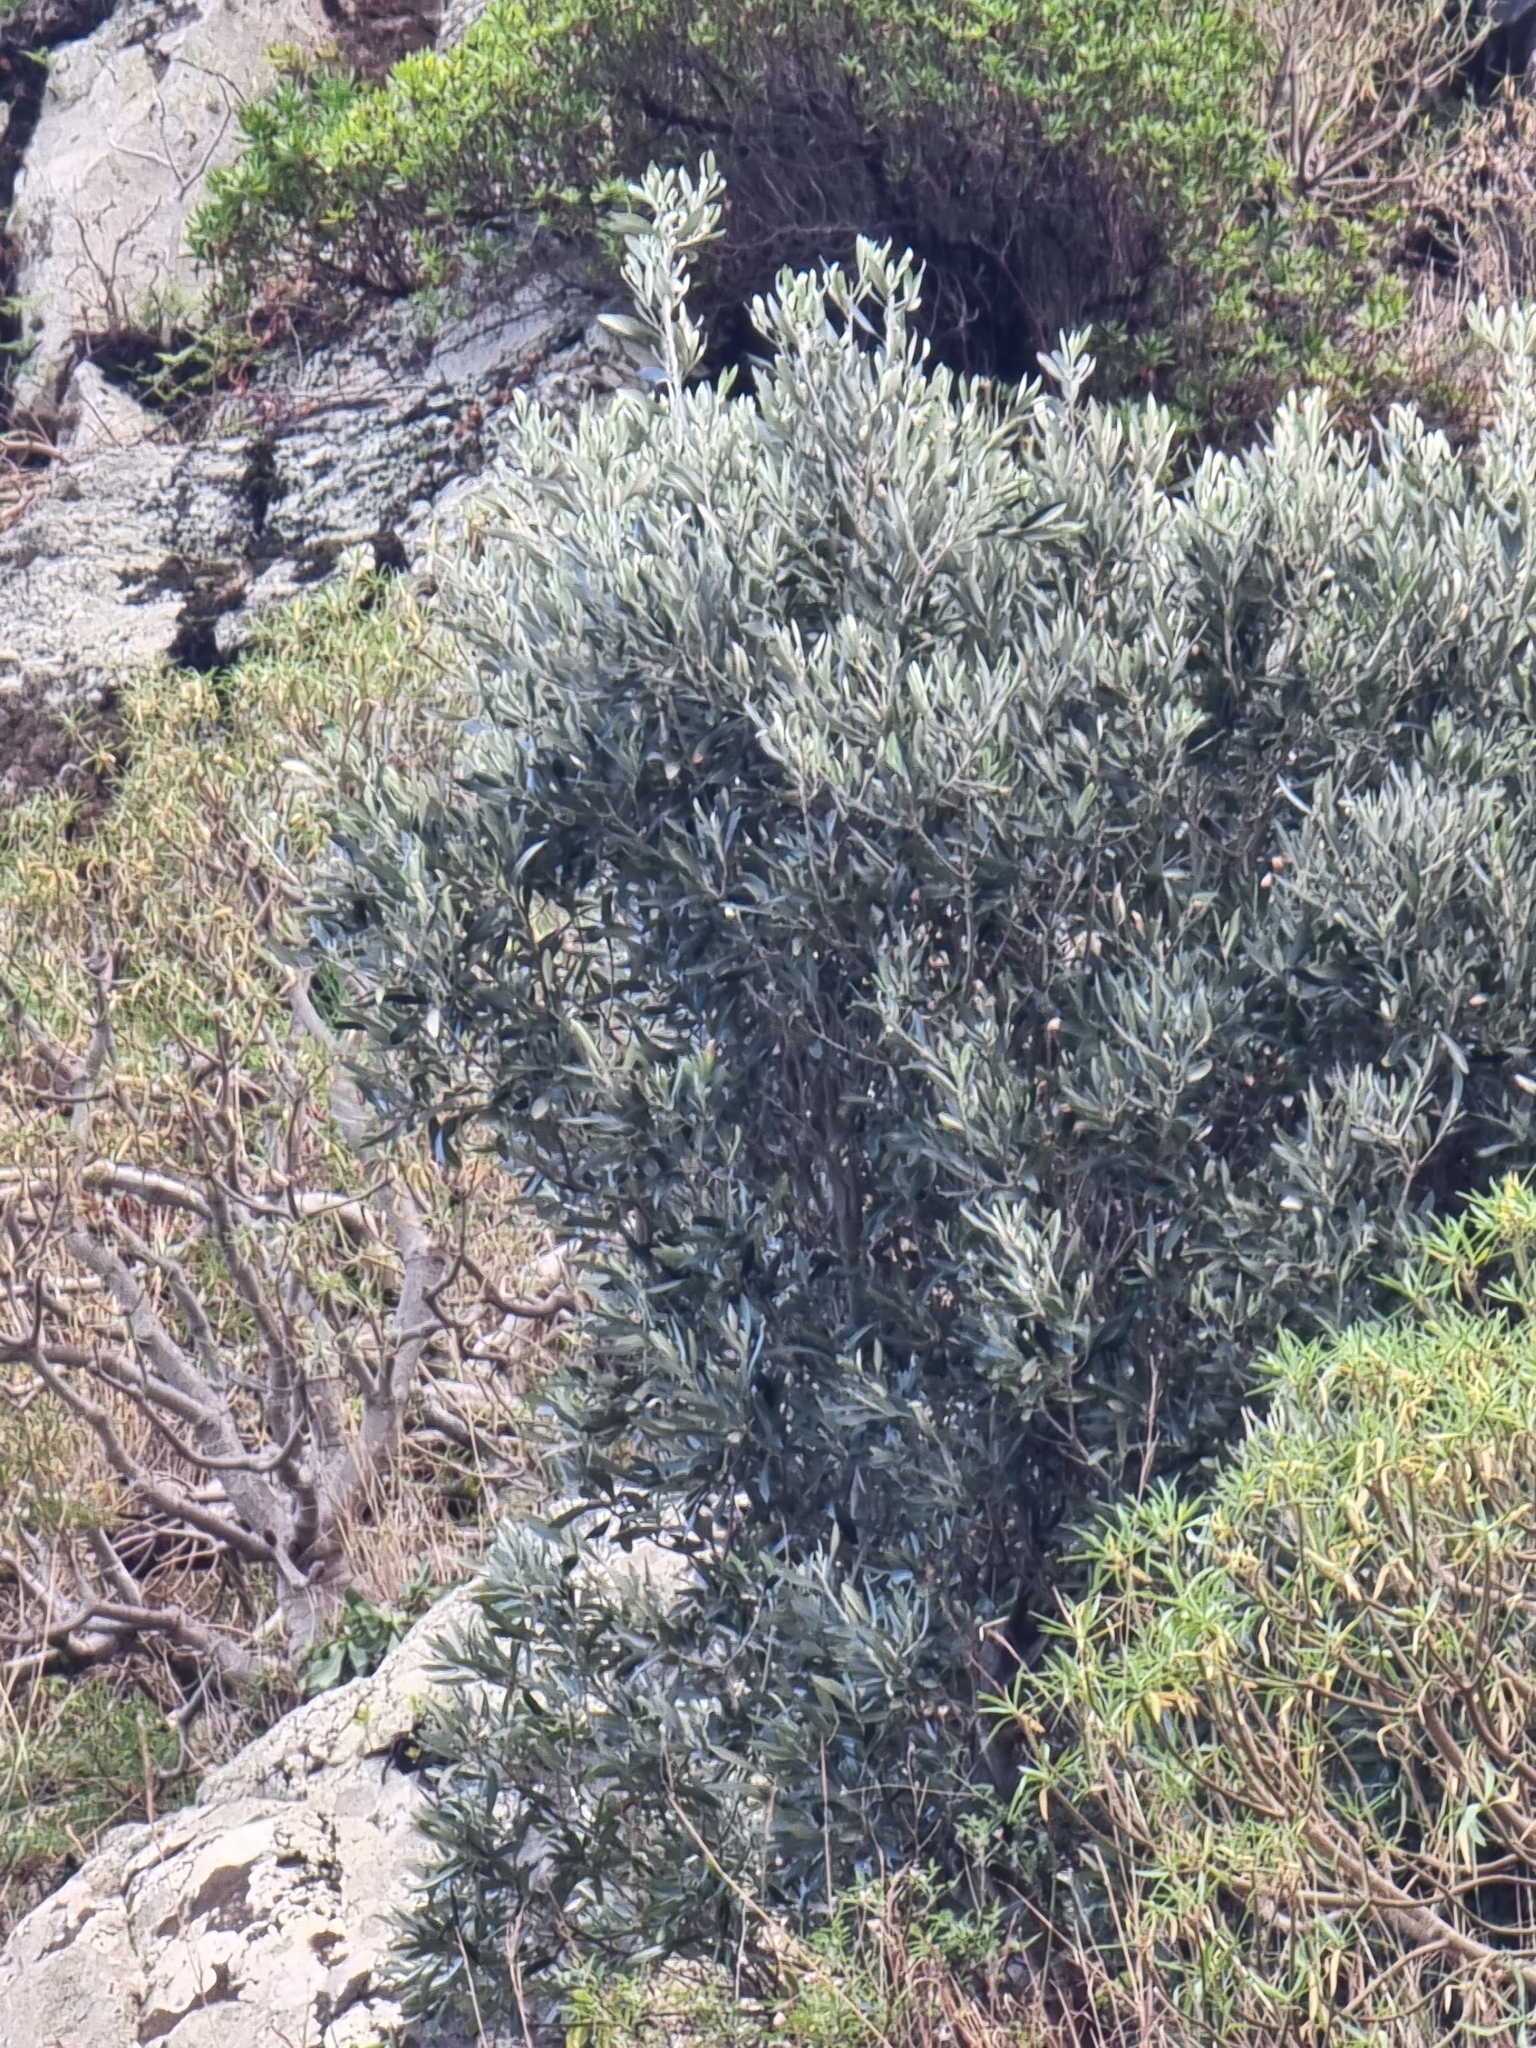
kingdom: Plantae
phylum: Tracheophyta
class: Magnoliopsida
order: Lamiales
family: Oleaceae
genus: Olea
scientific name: Olea europaea
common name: Olive
